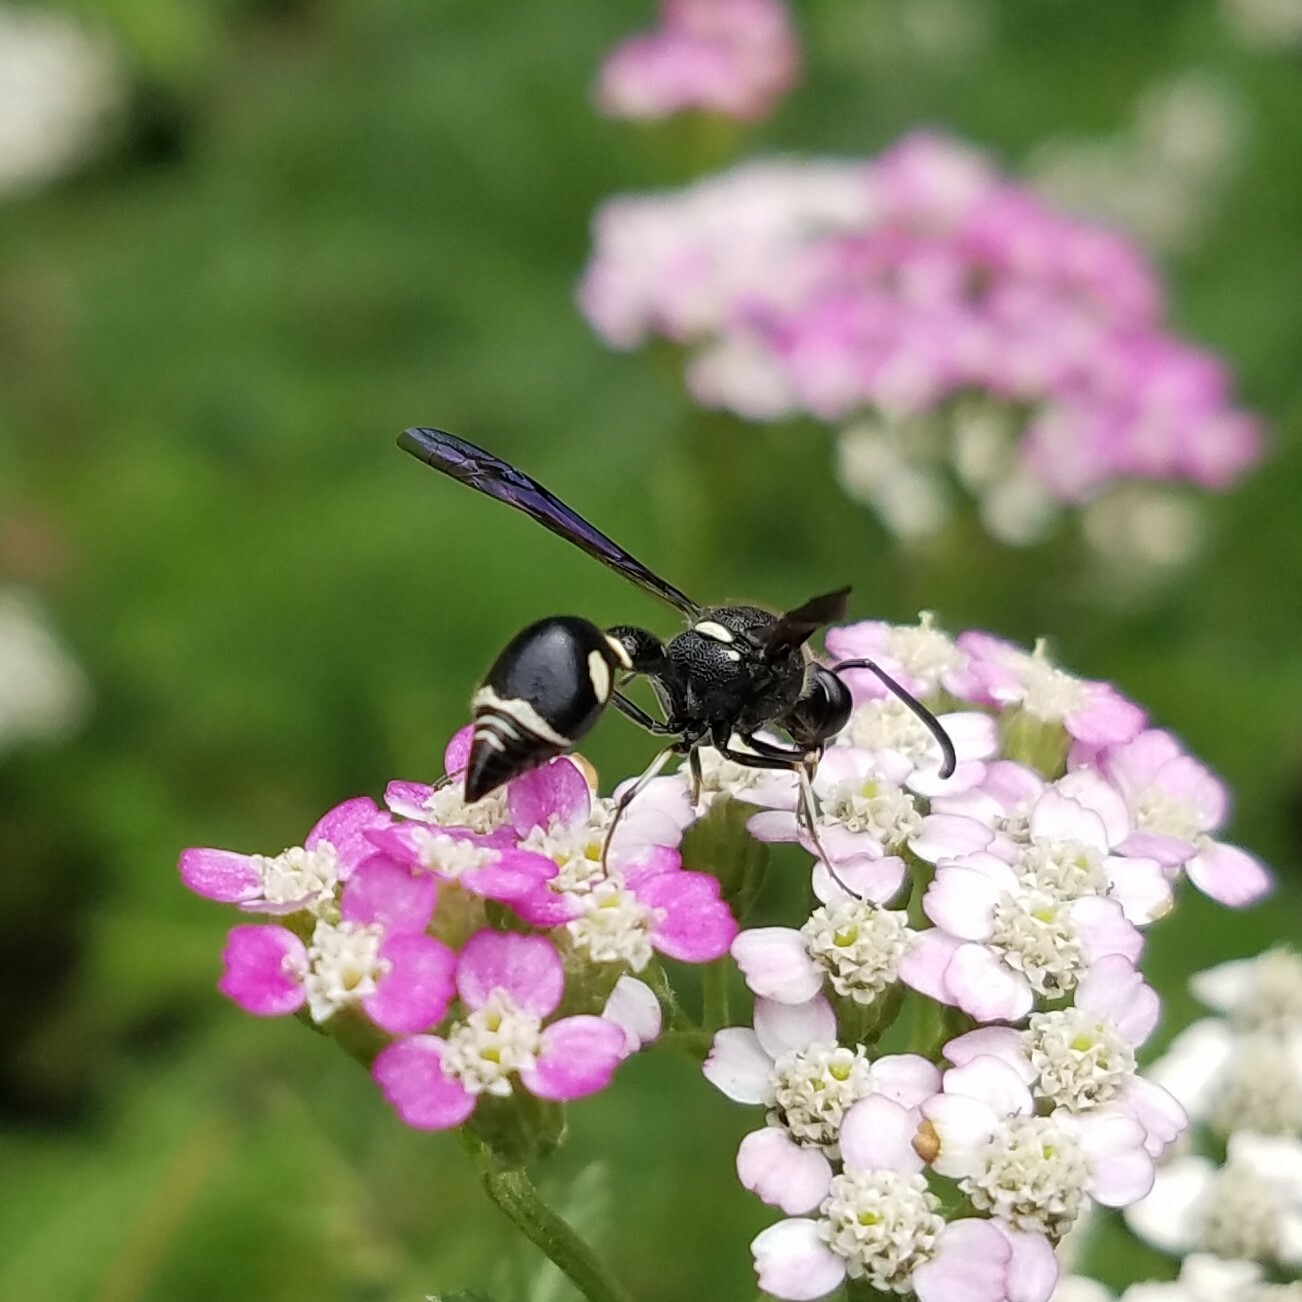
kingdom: Animalia
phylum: Arthropoda
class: Insecta
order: Hymenoptera
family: Vespidae
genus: Eumenes
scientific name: Eumenes fraternus
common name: Fraternal potter wasp
